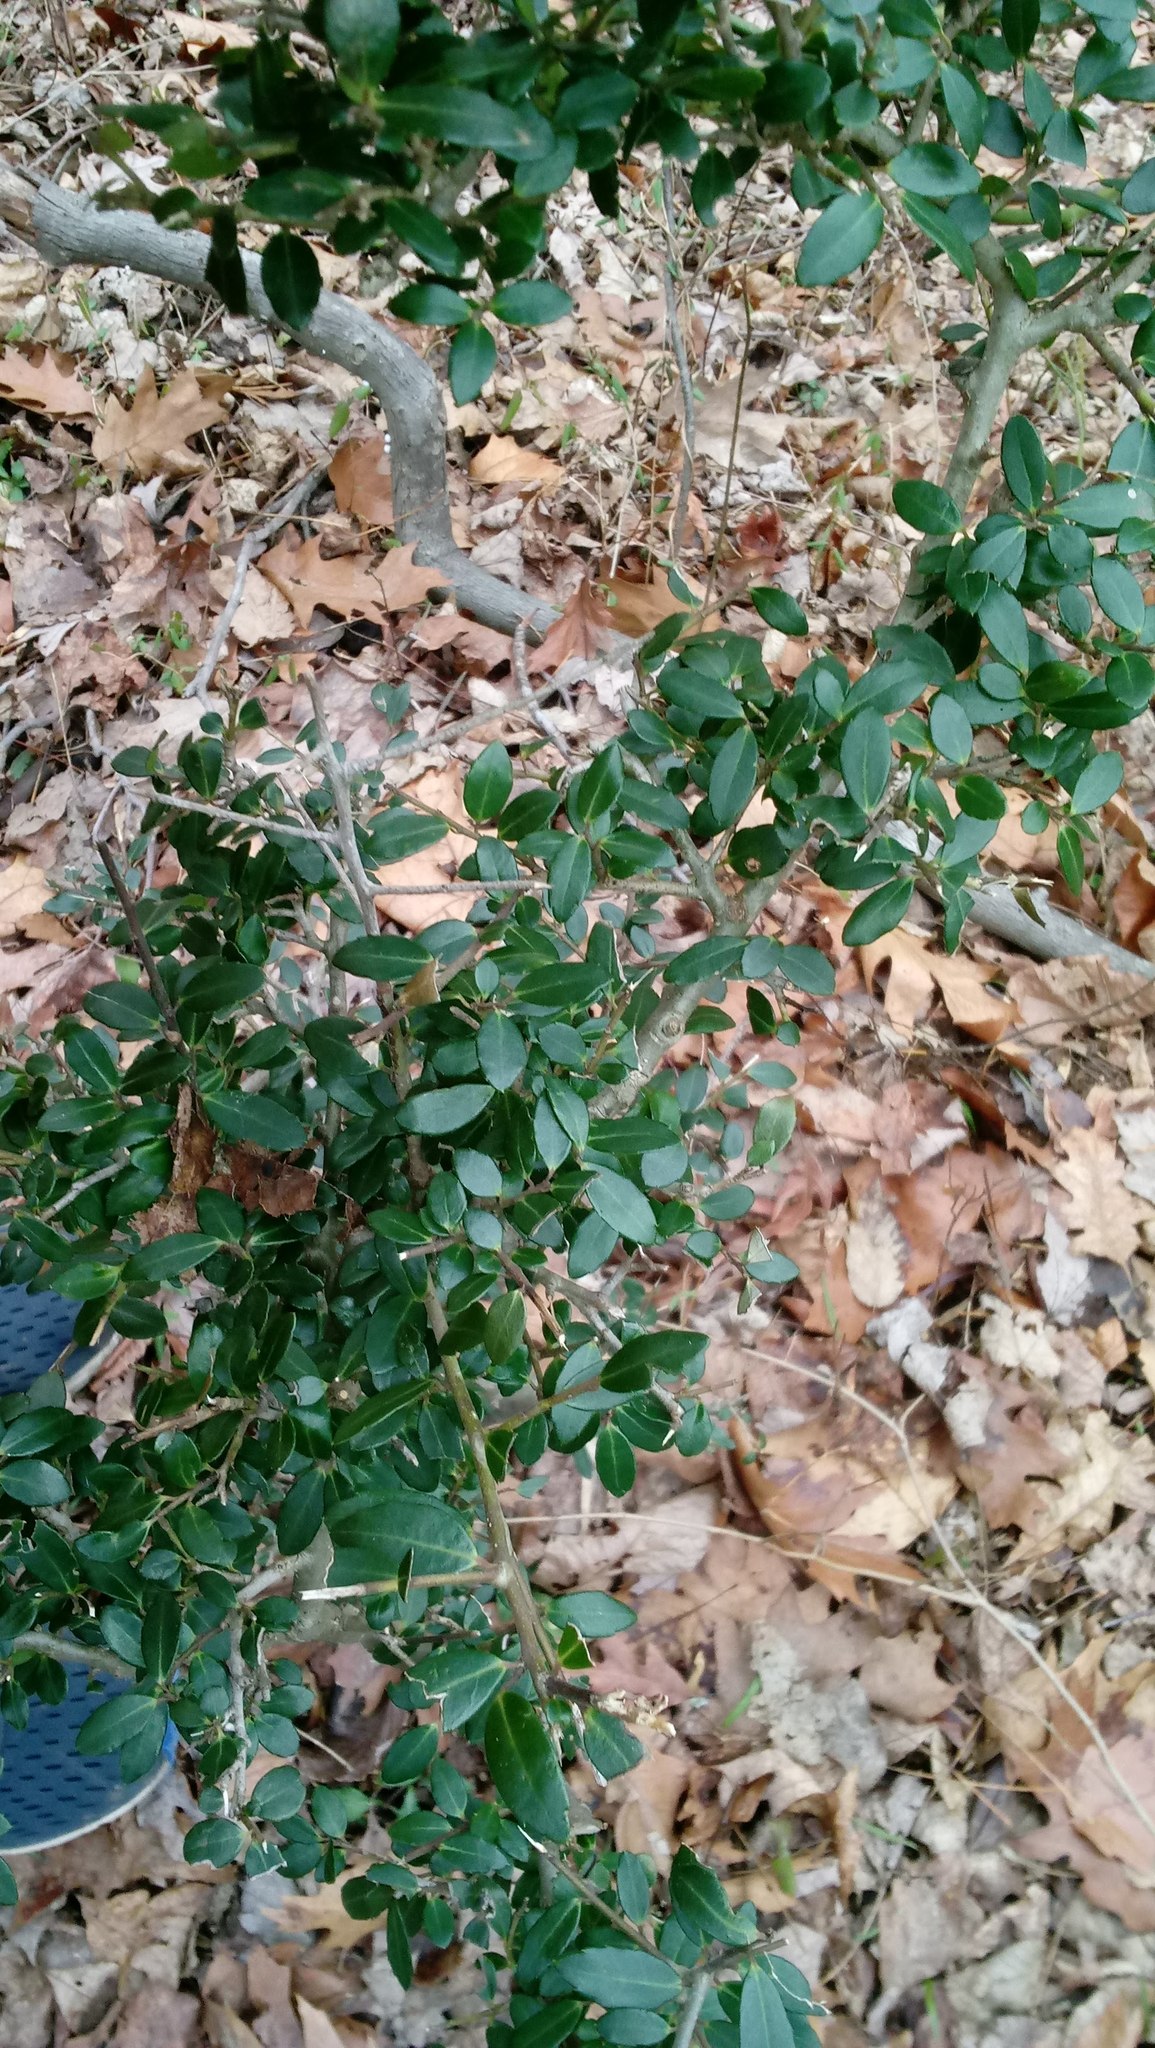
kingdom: Plantae
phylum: Tracheophyta
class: Magnoliopsida
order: Aquifoliales
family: Aquifoliaceae
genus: Ilex
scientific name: Ilex crenata
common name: Japanese holly
